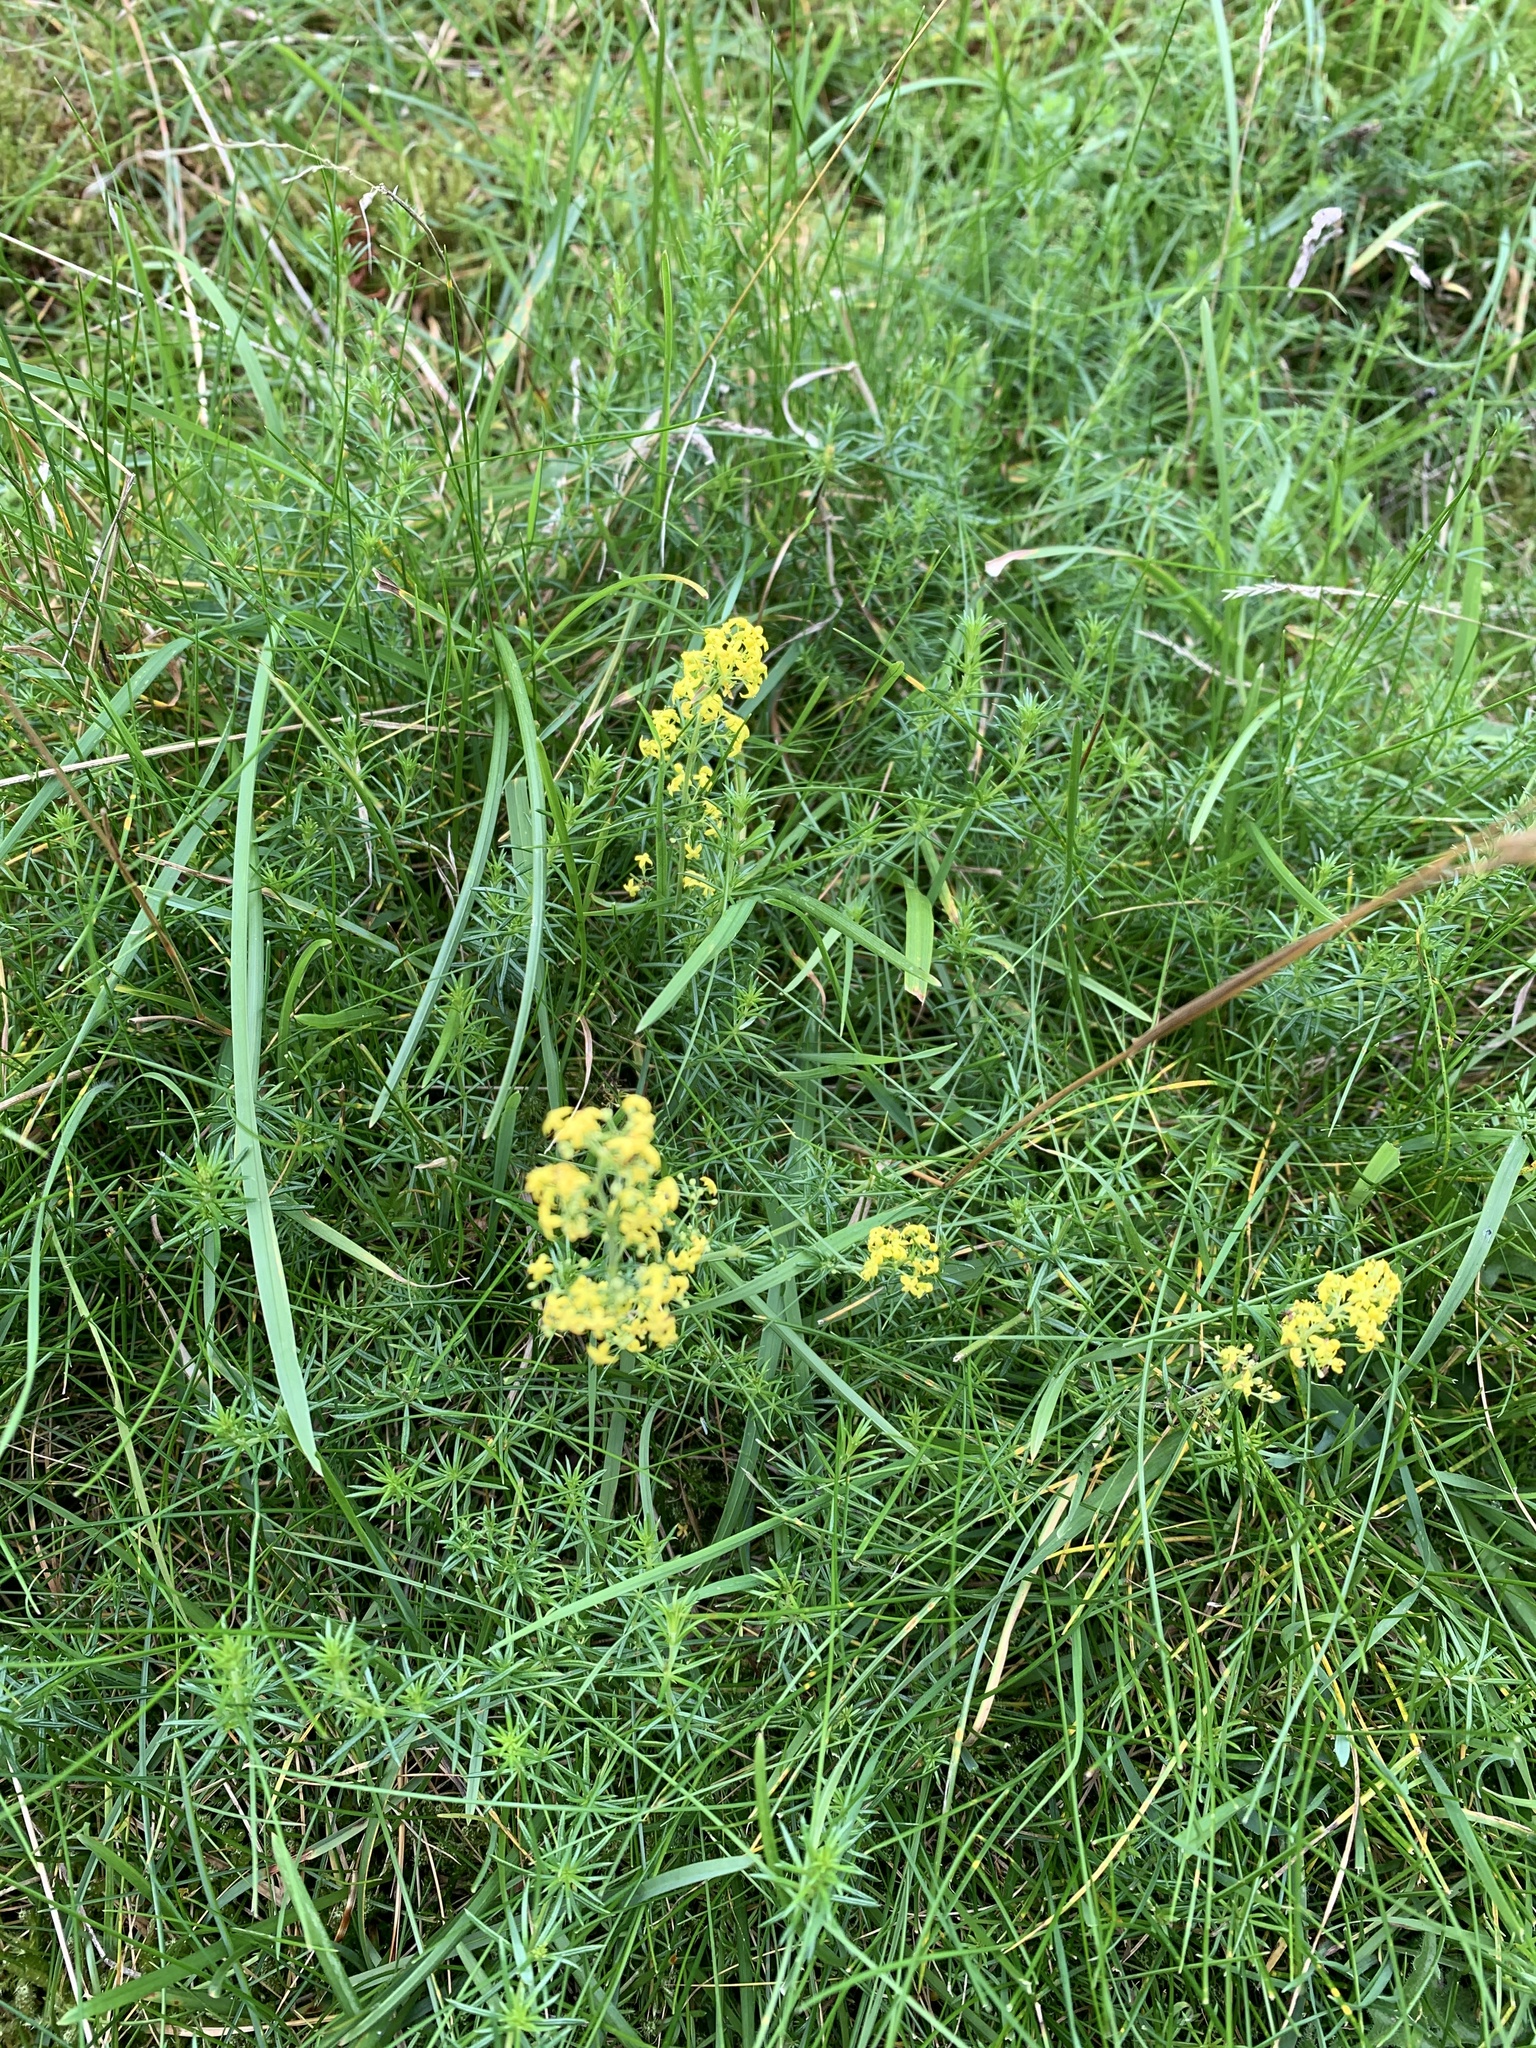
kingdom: Plantae
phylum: Tracheophyta
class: Magnoliopsida
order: Gentianales
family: Rubiaceae
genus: Galium
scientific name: Galium verum
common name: Lady's bedstraw
